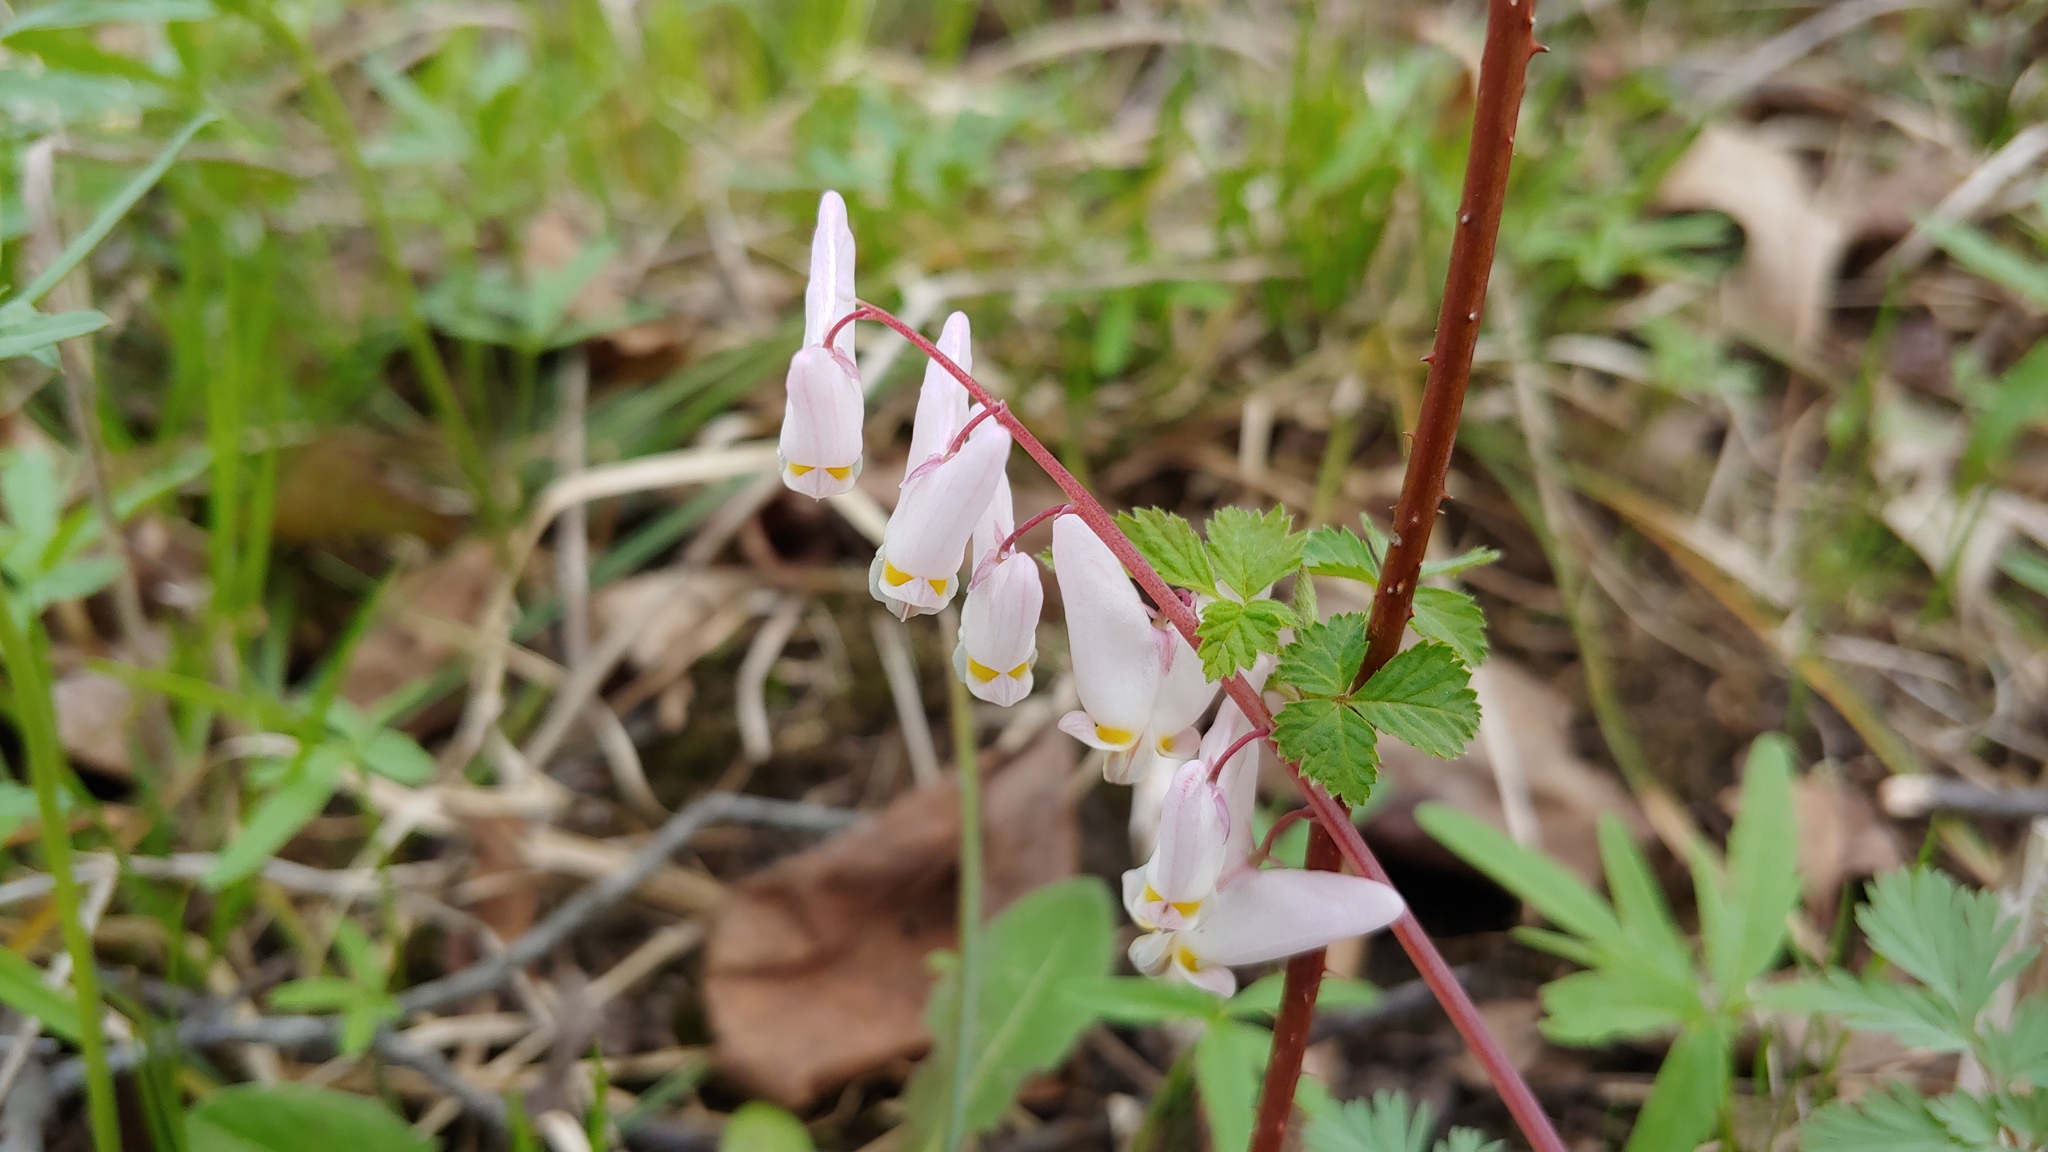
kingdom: Plantae
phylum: Tracheophyta
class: Magnoliopsida
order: Ranunculales
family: Papaveraceae
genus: Dicentra
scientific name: Dicentra cucullaria
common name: Dutchman's breeches
